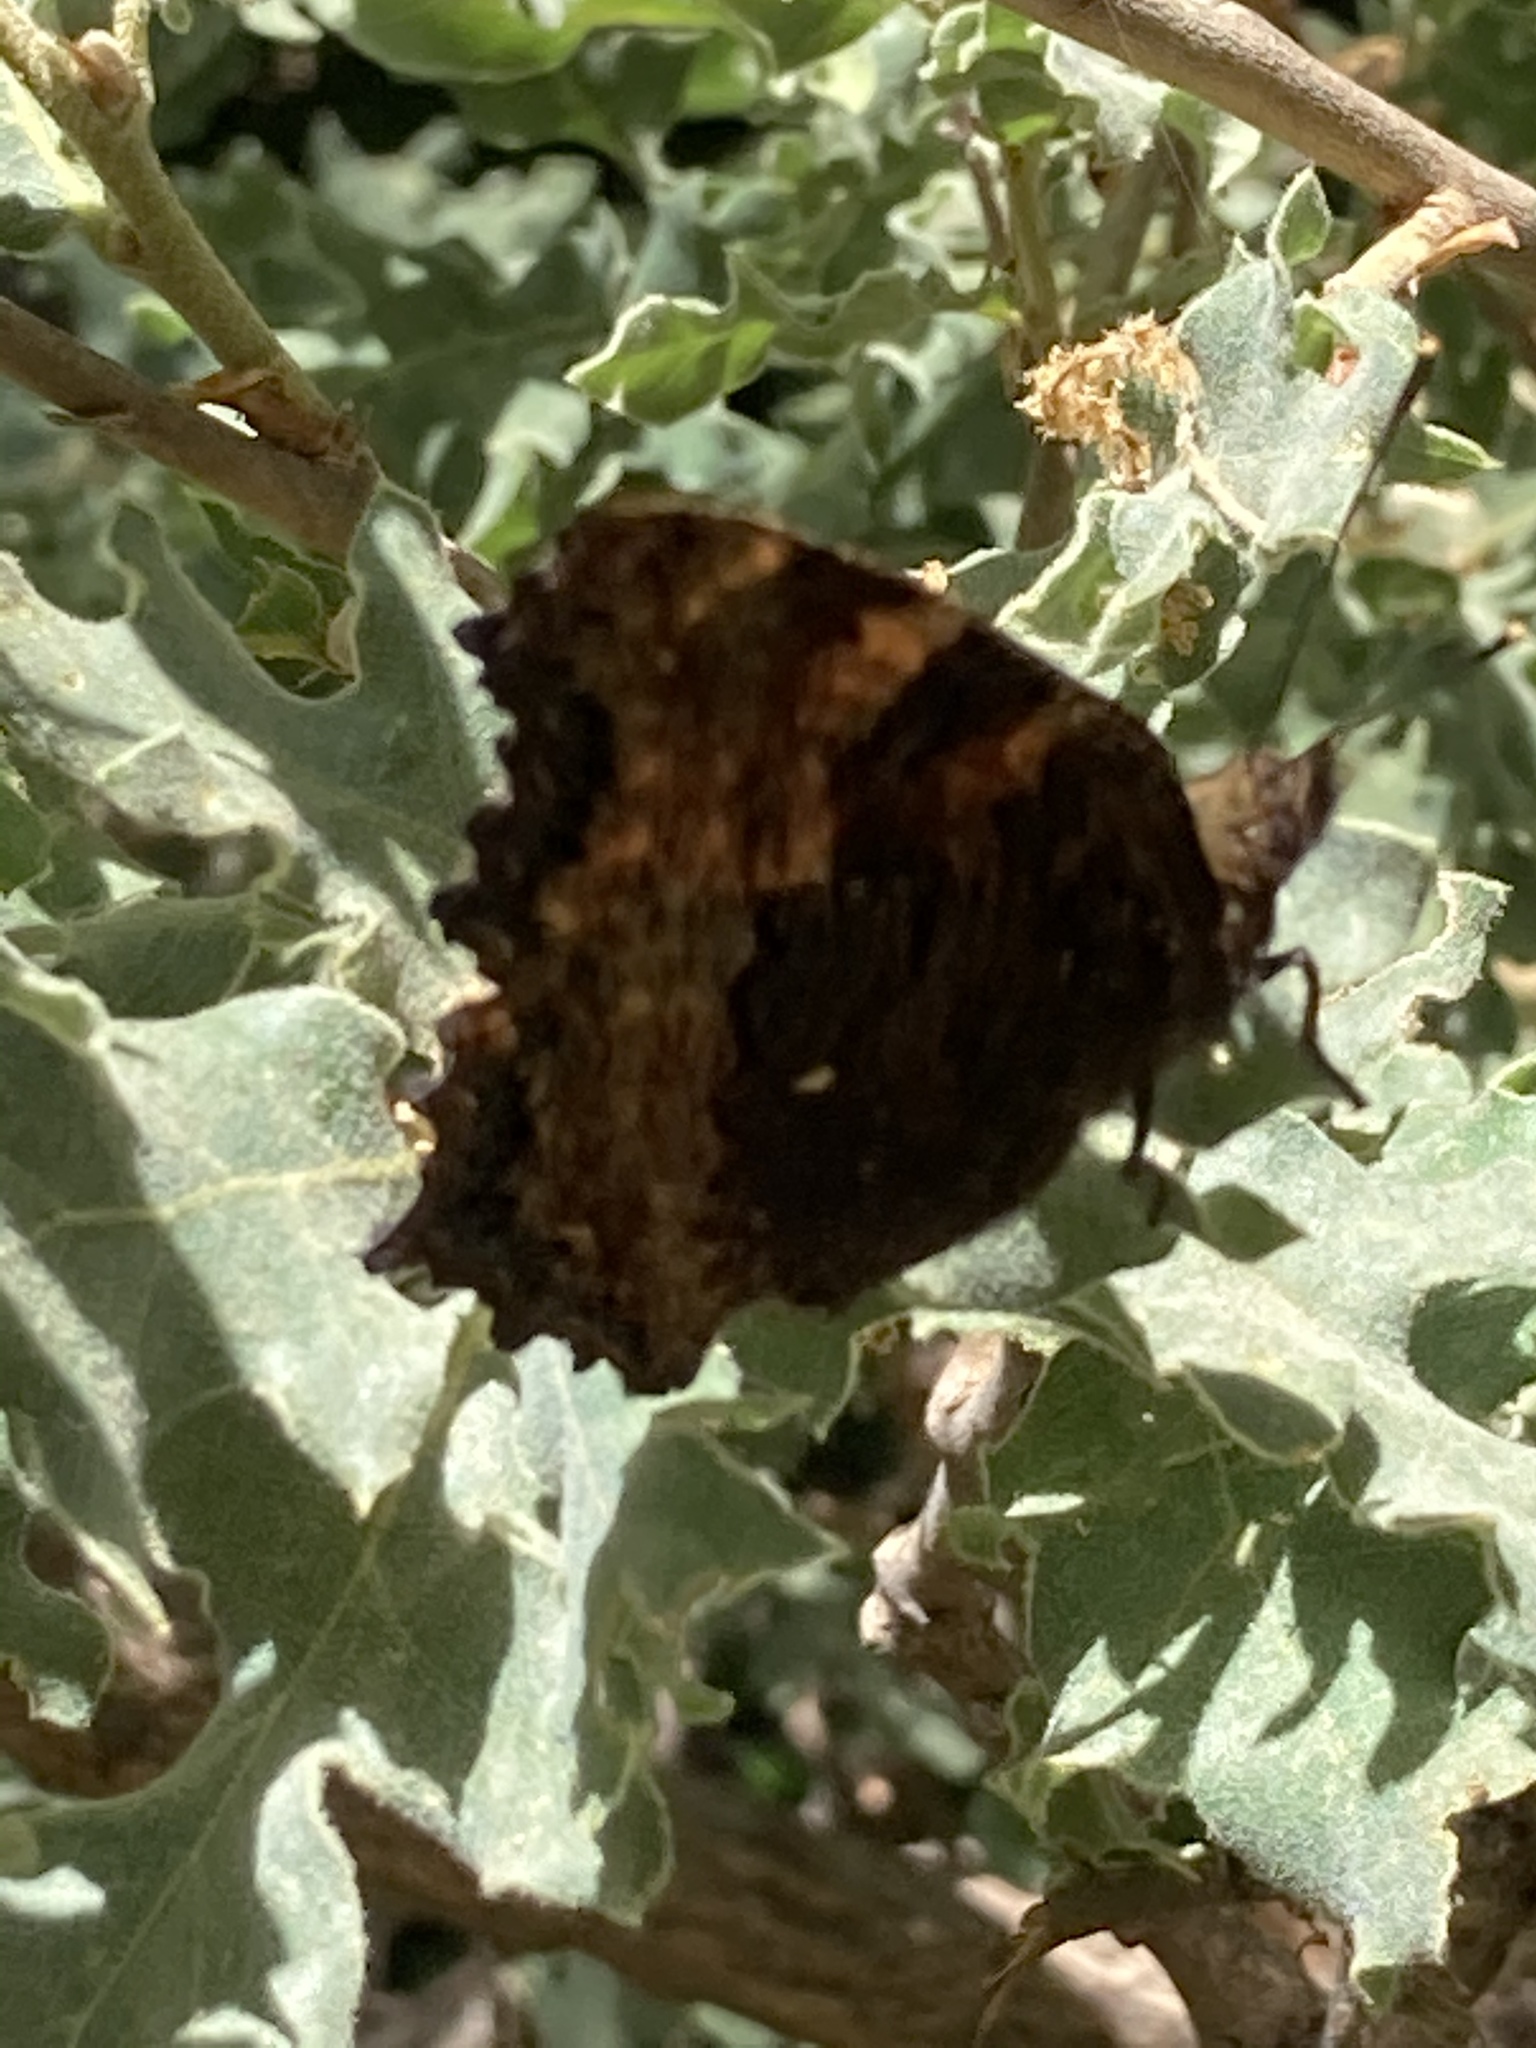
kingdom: Animalia
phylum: Arthropoda
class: Insecta
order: Lepidoptera
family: Nymphalidae
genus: Nymphalis
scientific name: Nymphalis polychloros
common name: Large tortoiseshell
